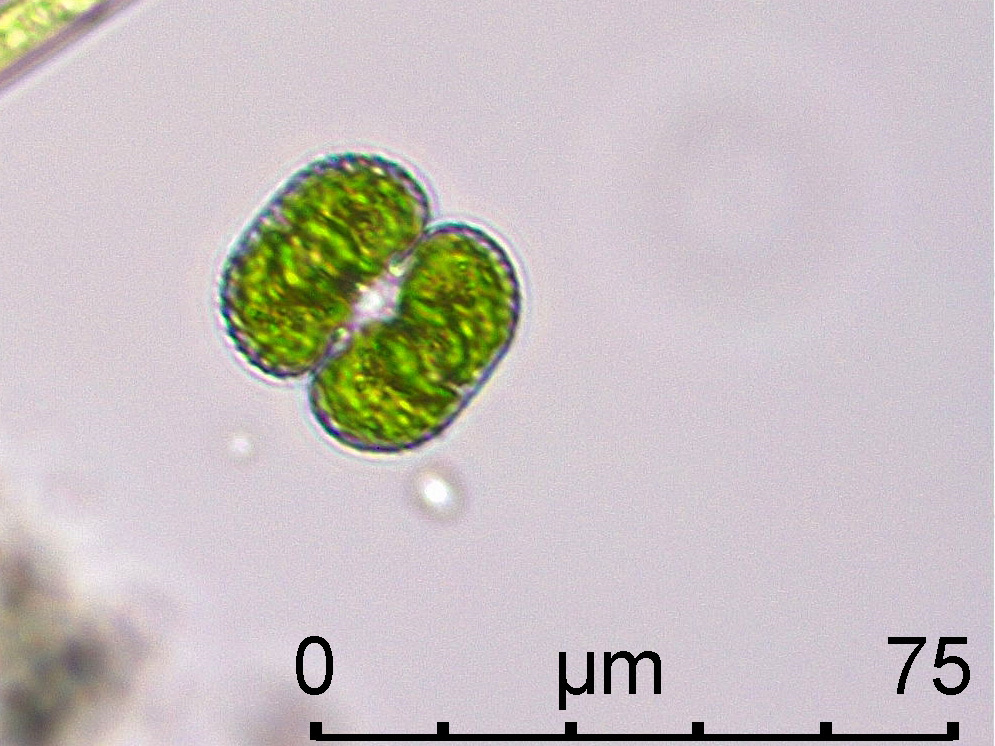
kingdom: Plantae
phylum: Charophyta
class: Conjugatophyceae
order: Desmidiales
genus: Cosmarium
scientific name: Cosmarium punctulatum
